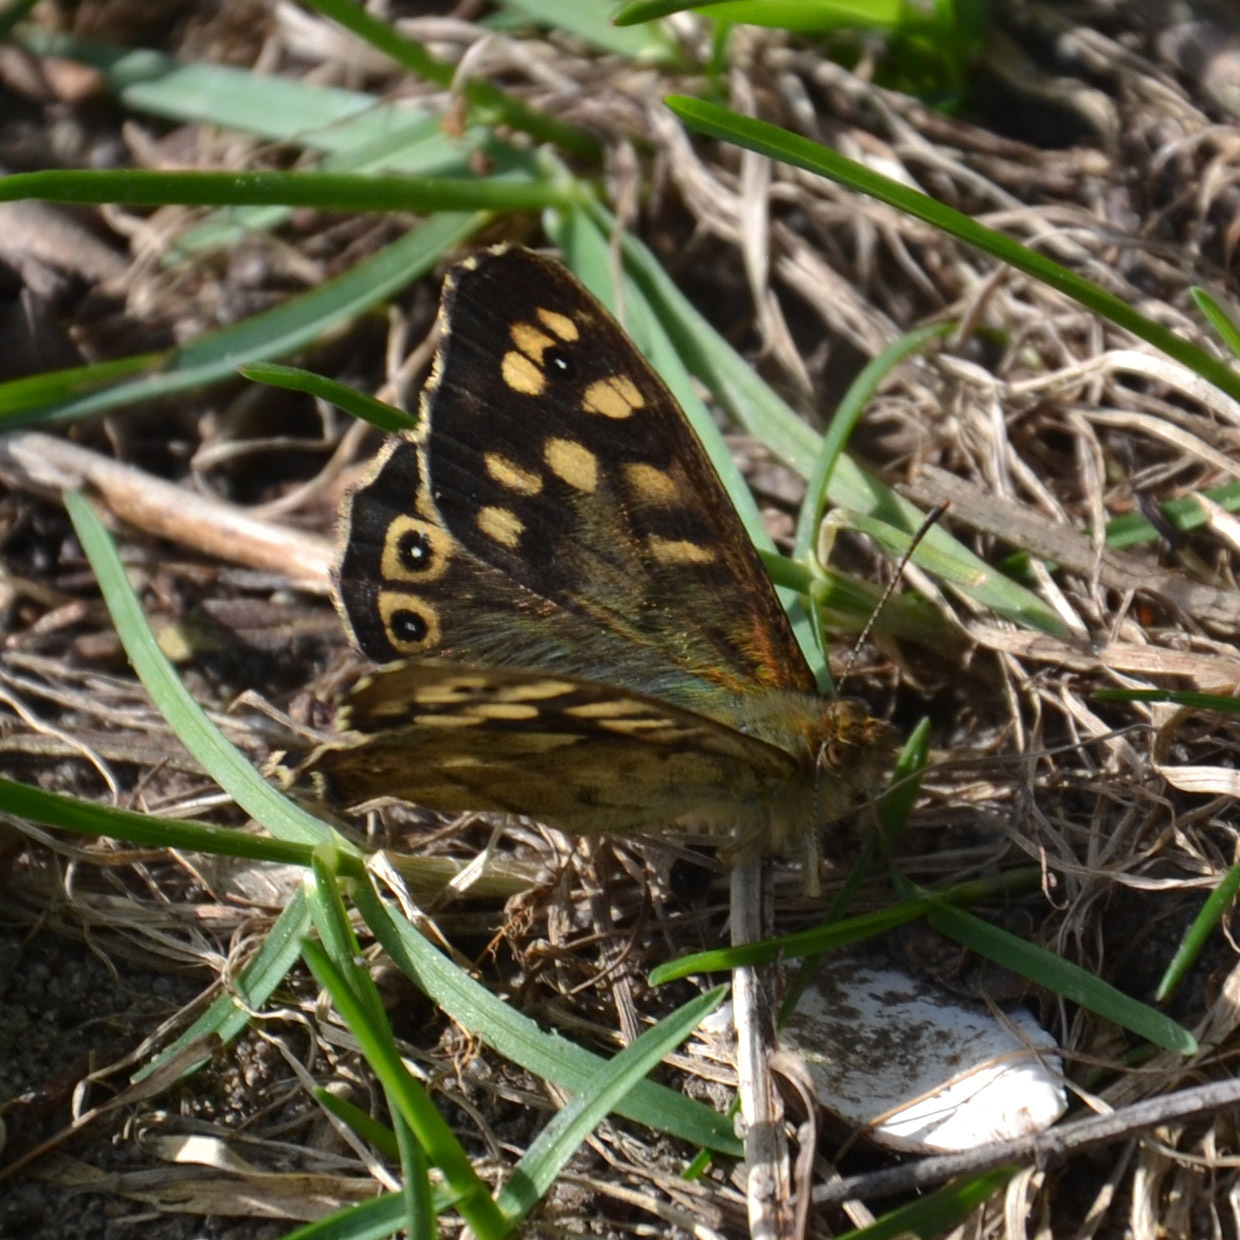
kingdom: Animalia
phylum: Arthropoda
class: Insecta
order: Lepidoptera
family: Nymphalidae
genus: Pararge
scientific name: Pararge aegeria
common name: Speckled wood
